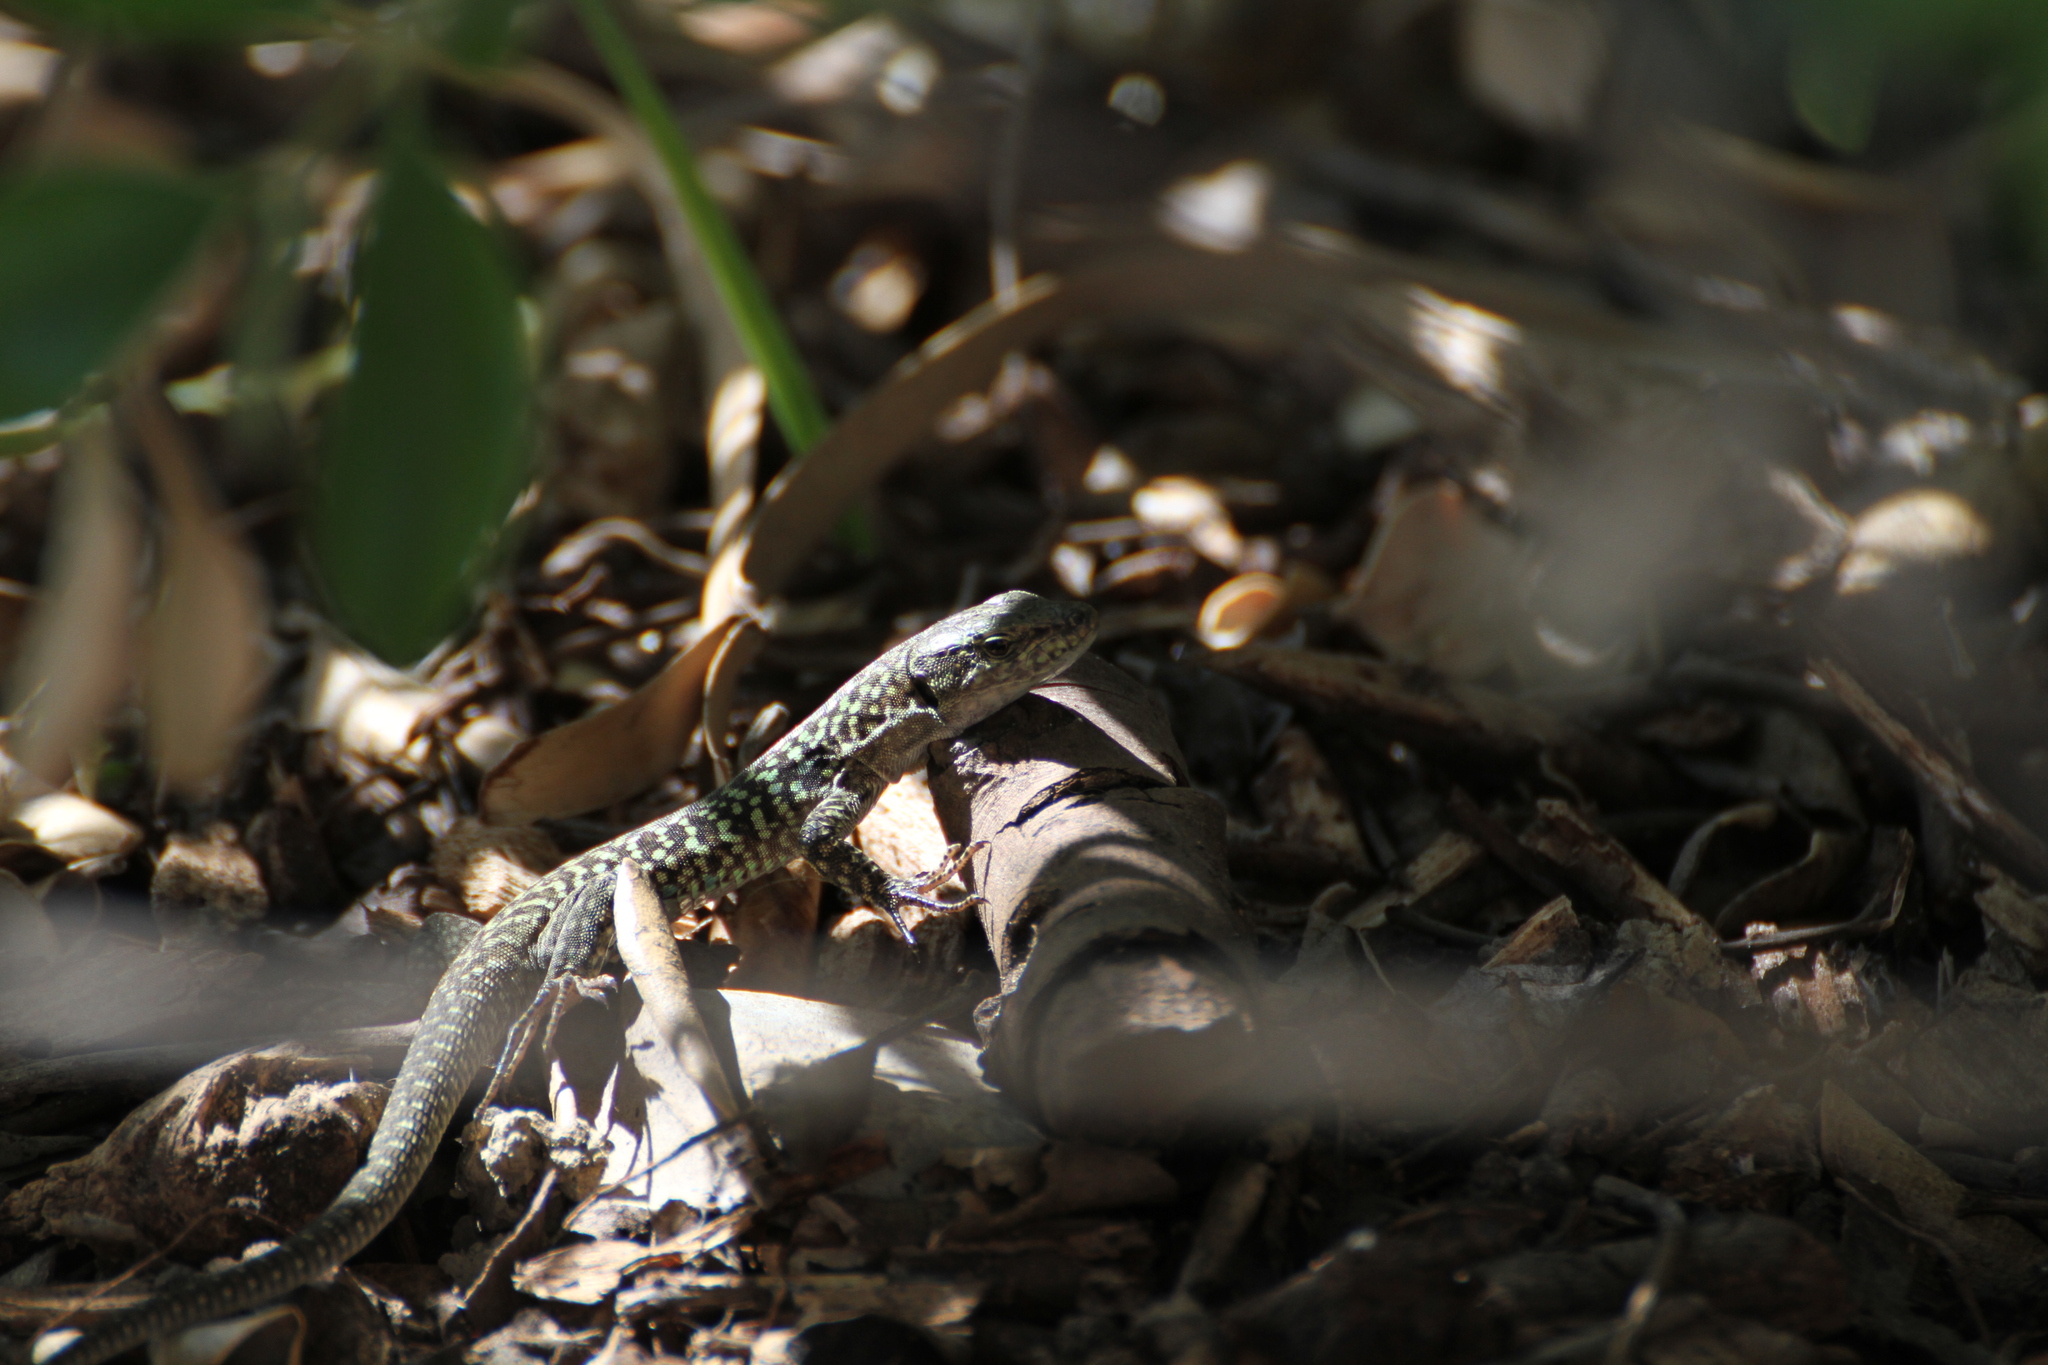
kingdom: Animalia
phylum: Chordata
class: Squamata
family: Lacertidae
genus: Podarcis
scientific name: Podarcis siculus
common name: Italian wall lizard
